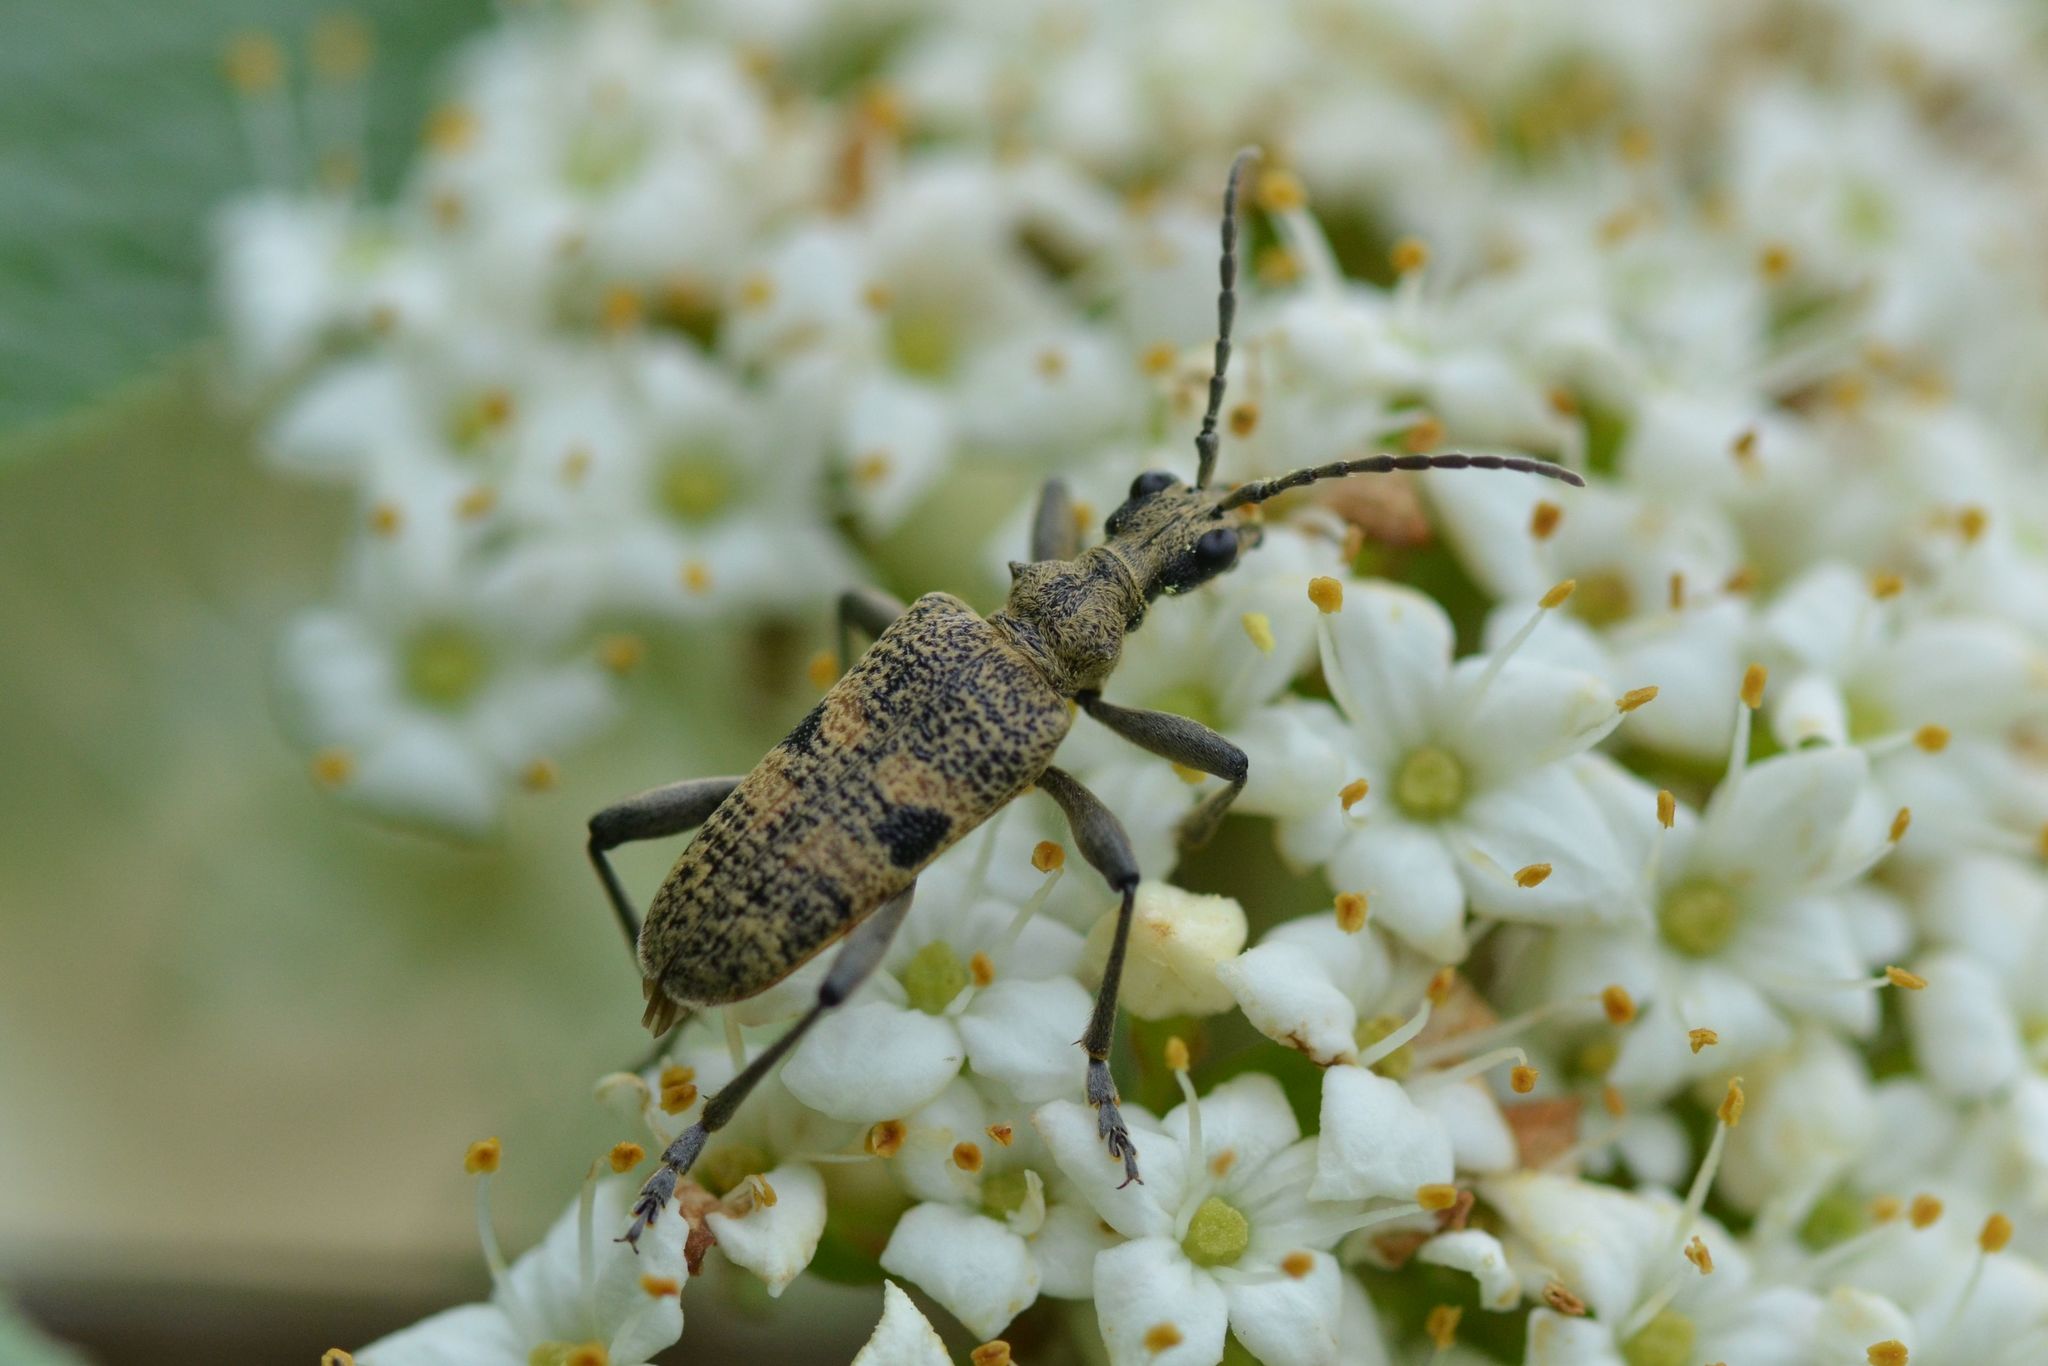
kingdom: Animalia
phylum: Arthropoda
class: Insecta
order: Coleoptera
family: Cerambycidae
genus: Rhagium
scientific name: Rhagium mordax
